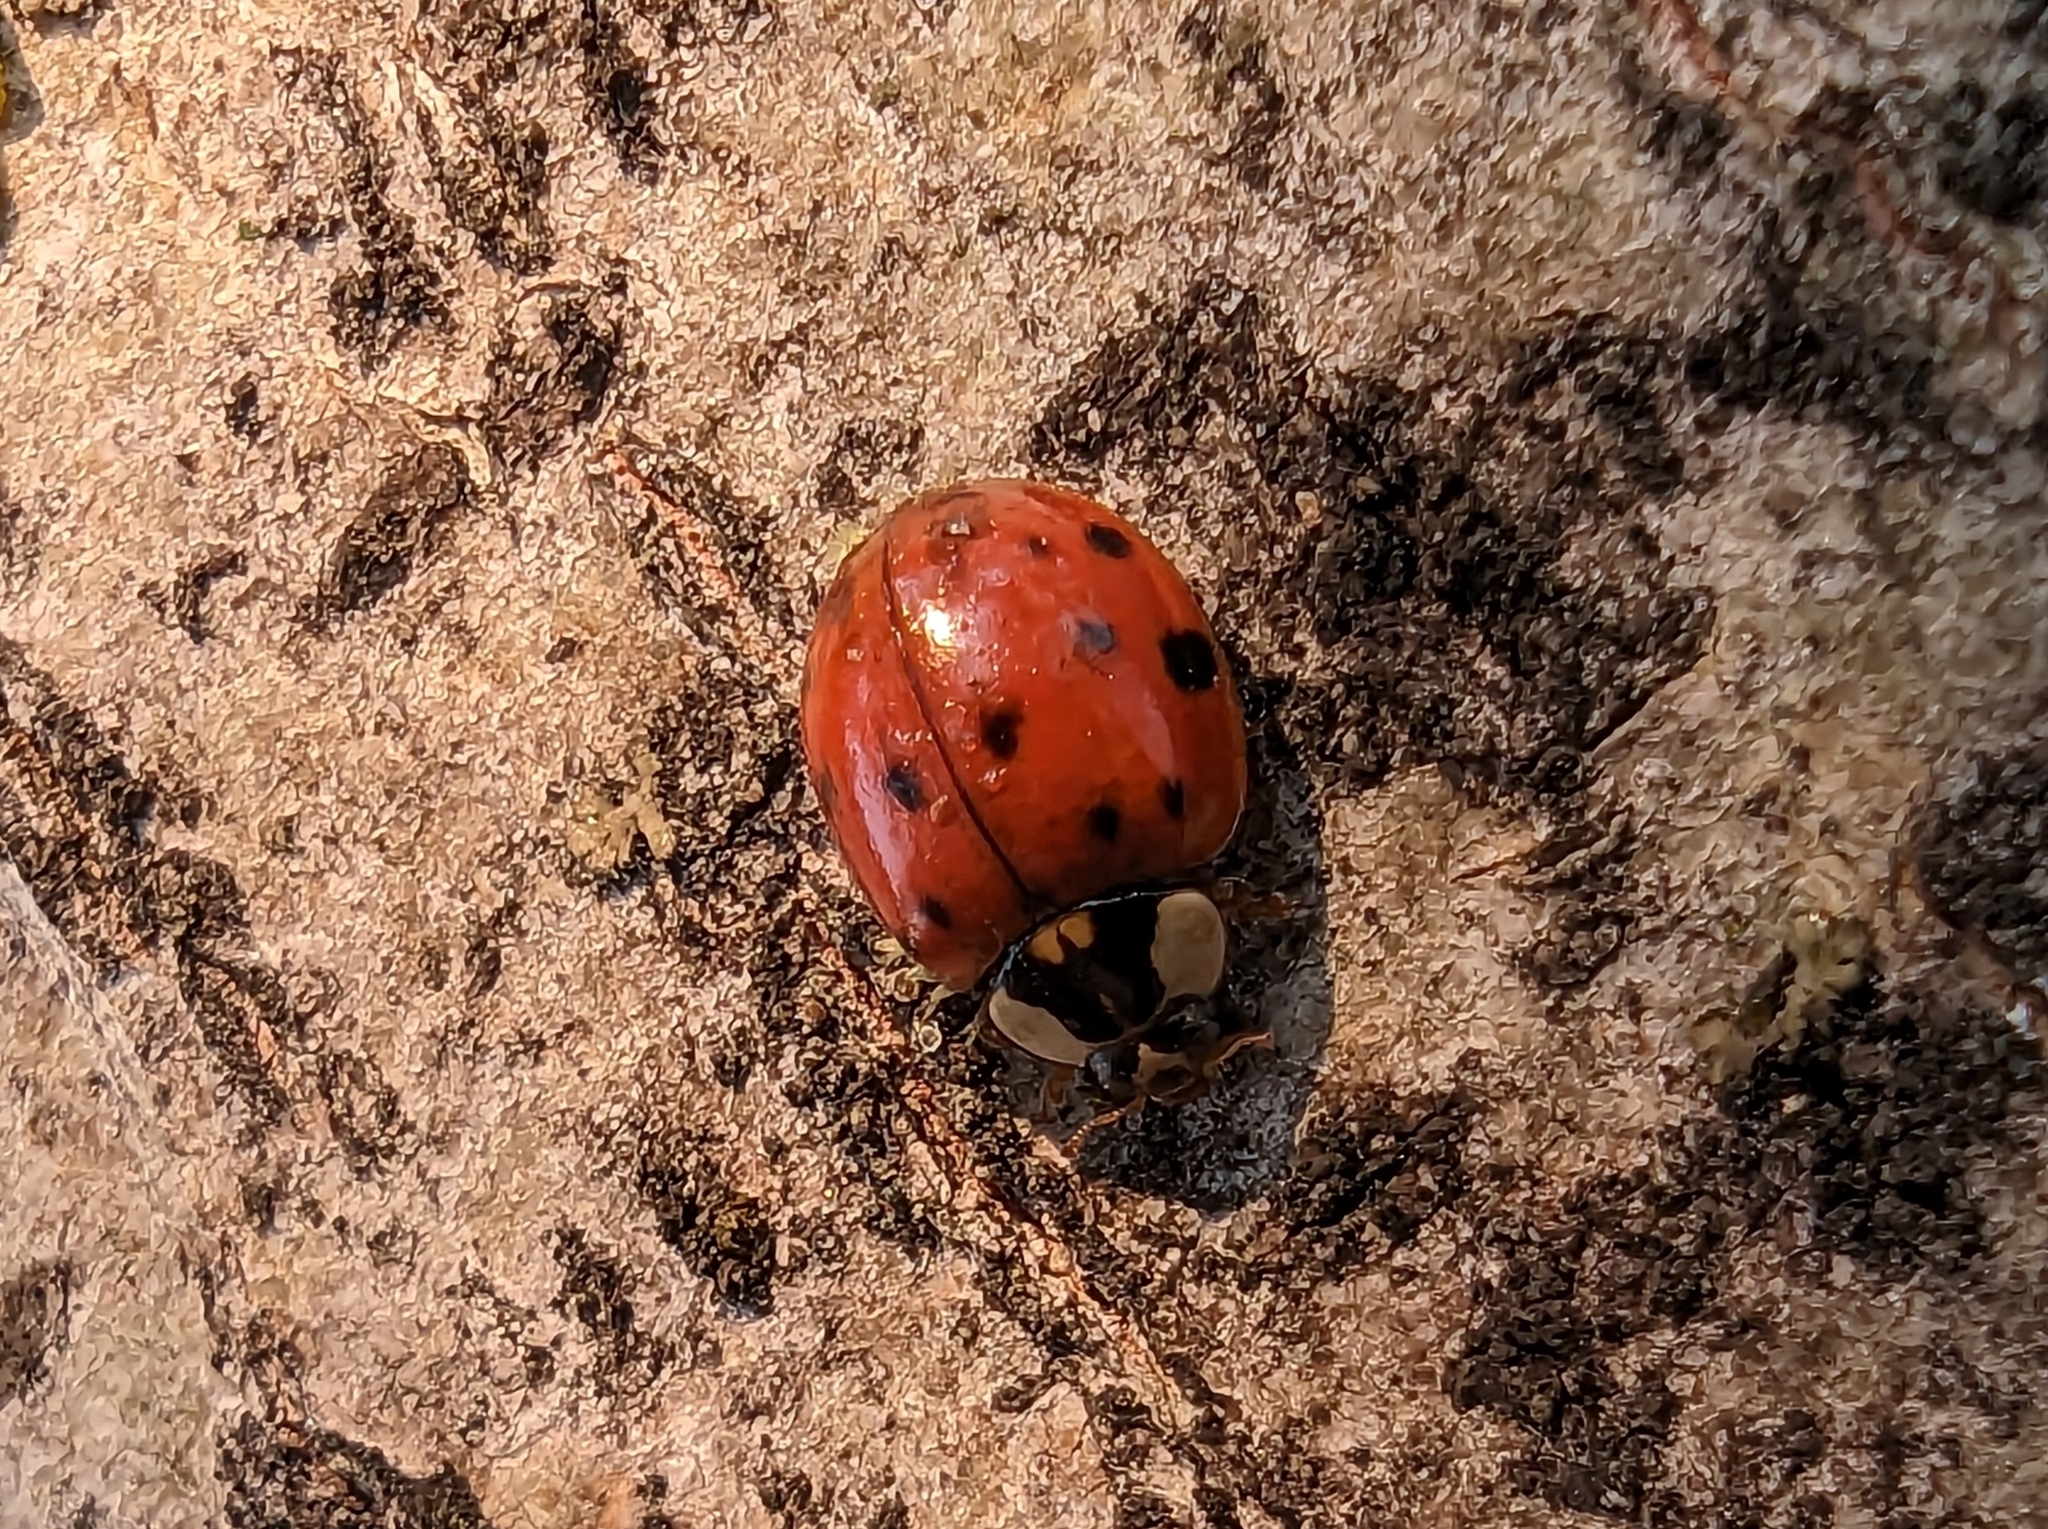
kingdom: Animalia
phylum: Arthropoda
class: Insecta
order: Coleoptera
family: Coccinellidae
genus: Harmonia
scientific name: Harmonia axyridis
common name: Harlequin ladybird
